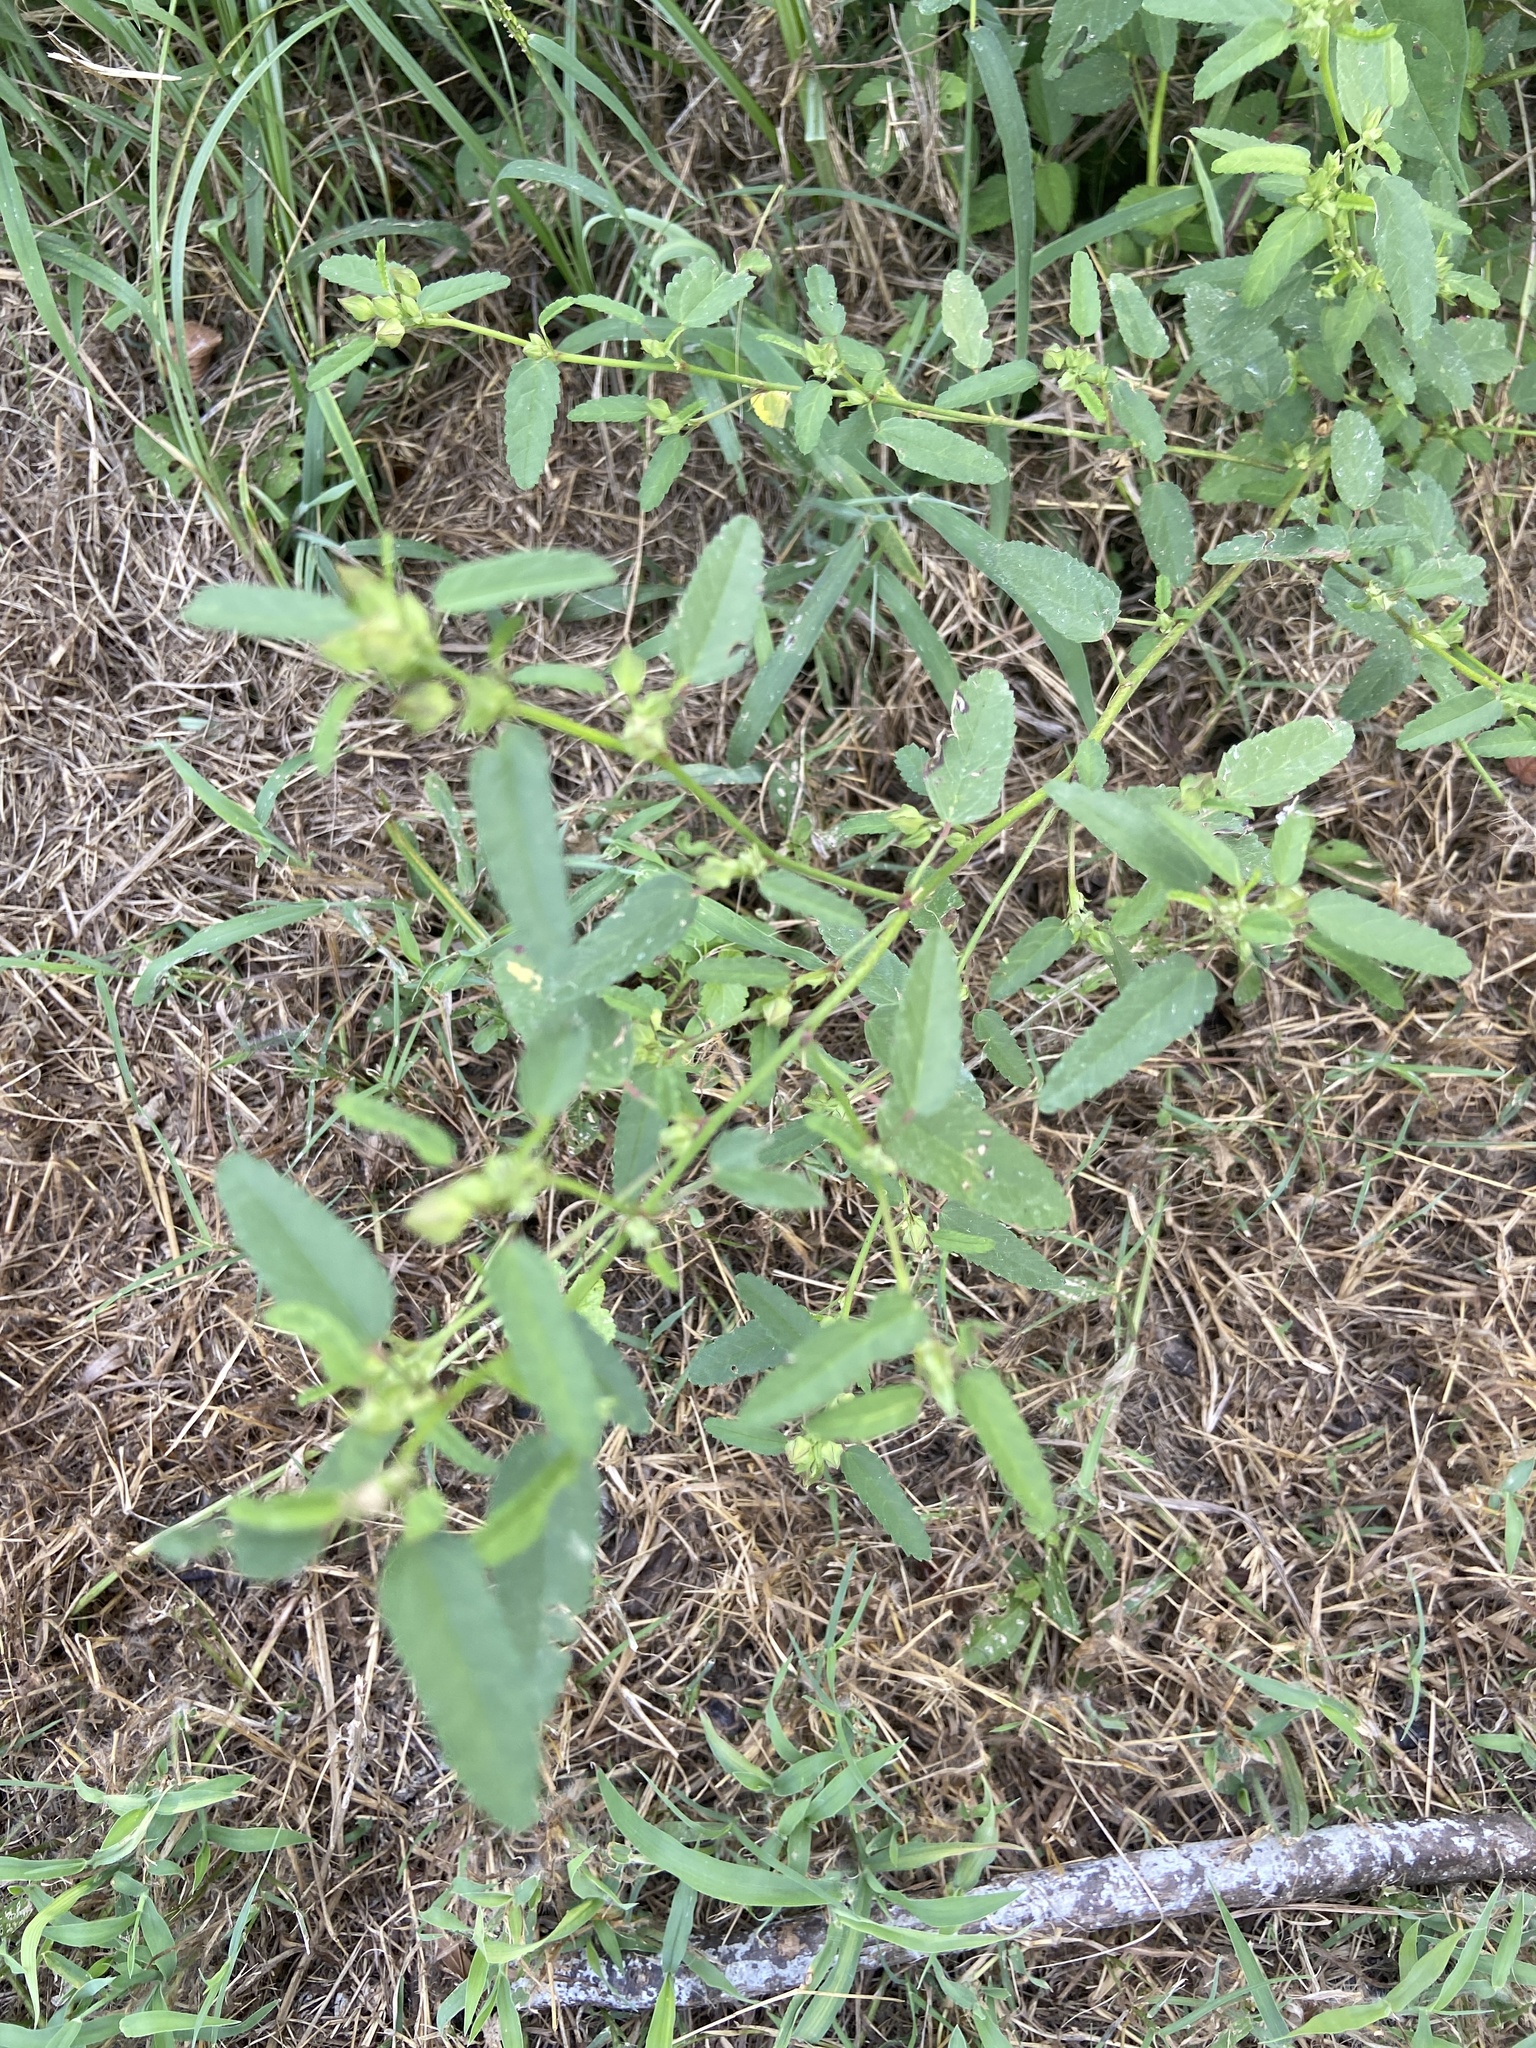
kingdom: Plantae
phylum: Tracheophyta
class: Magnoliopsida
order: Malvales
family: Malvaceae
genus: Sida
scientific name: Sida spinosa
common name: Prickly fanpetals
